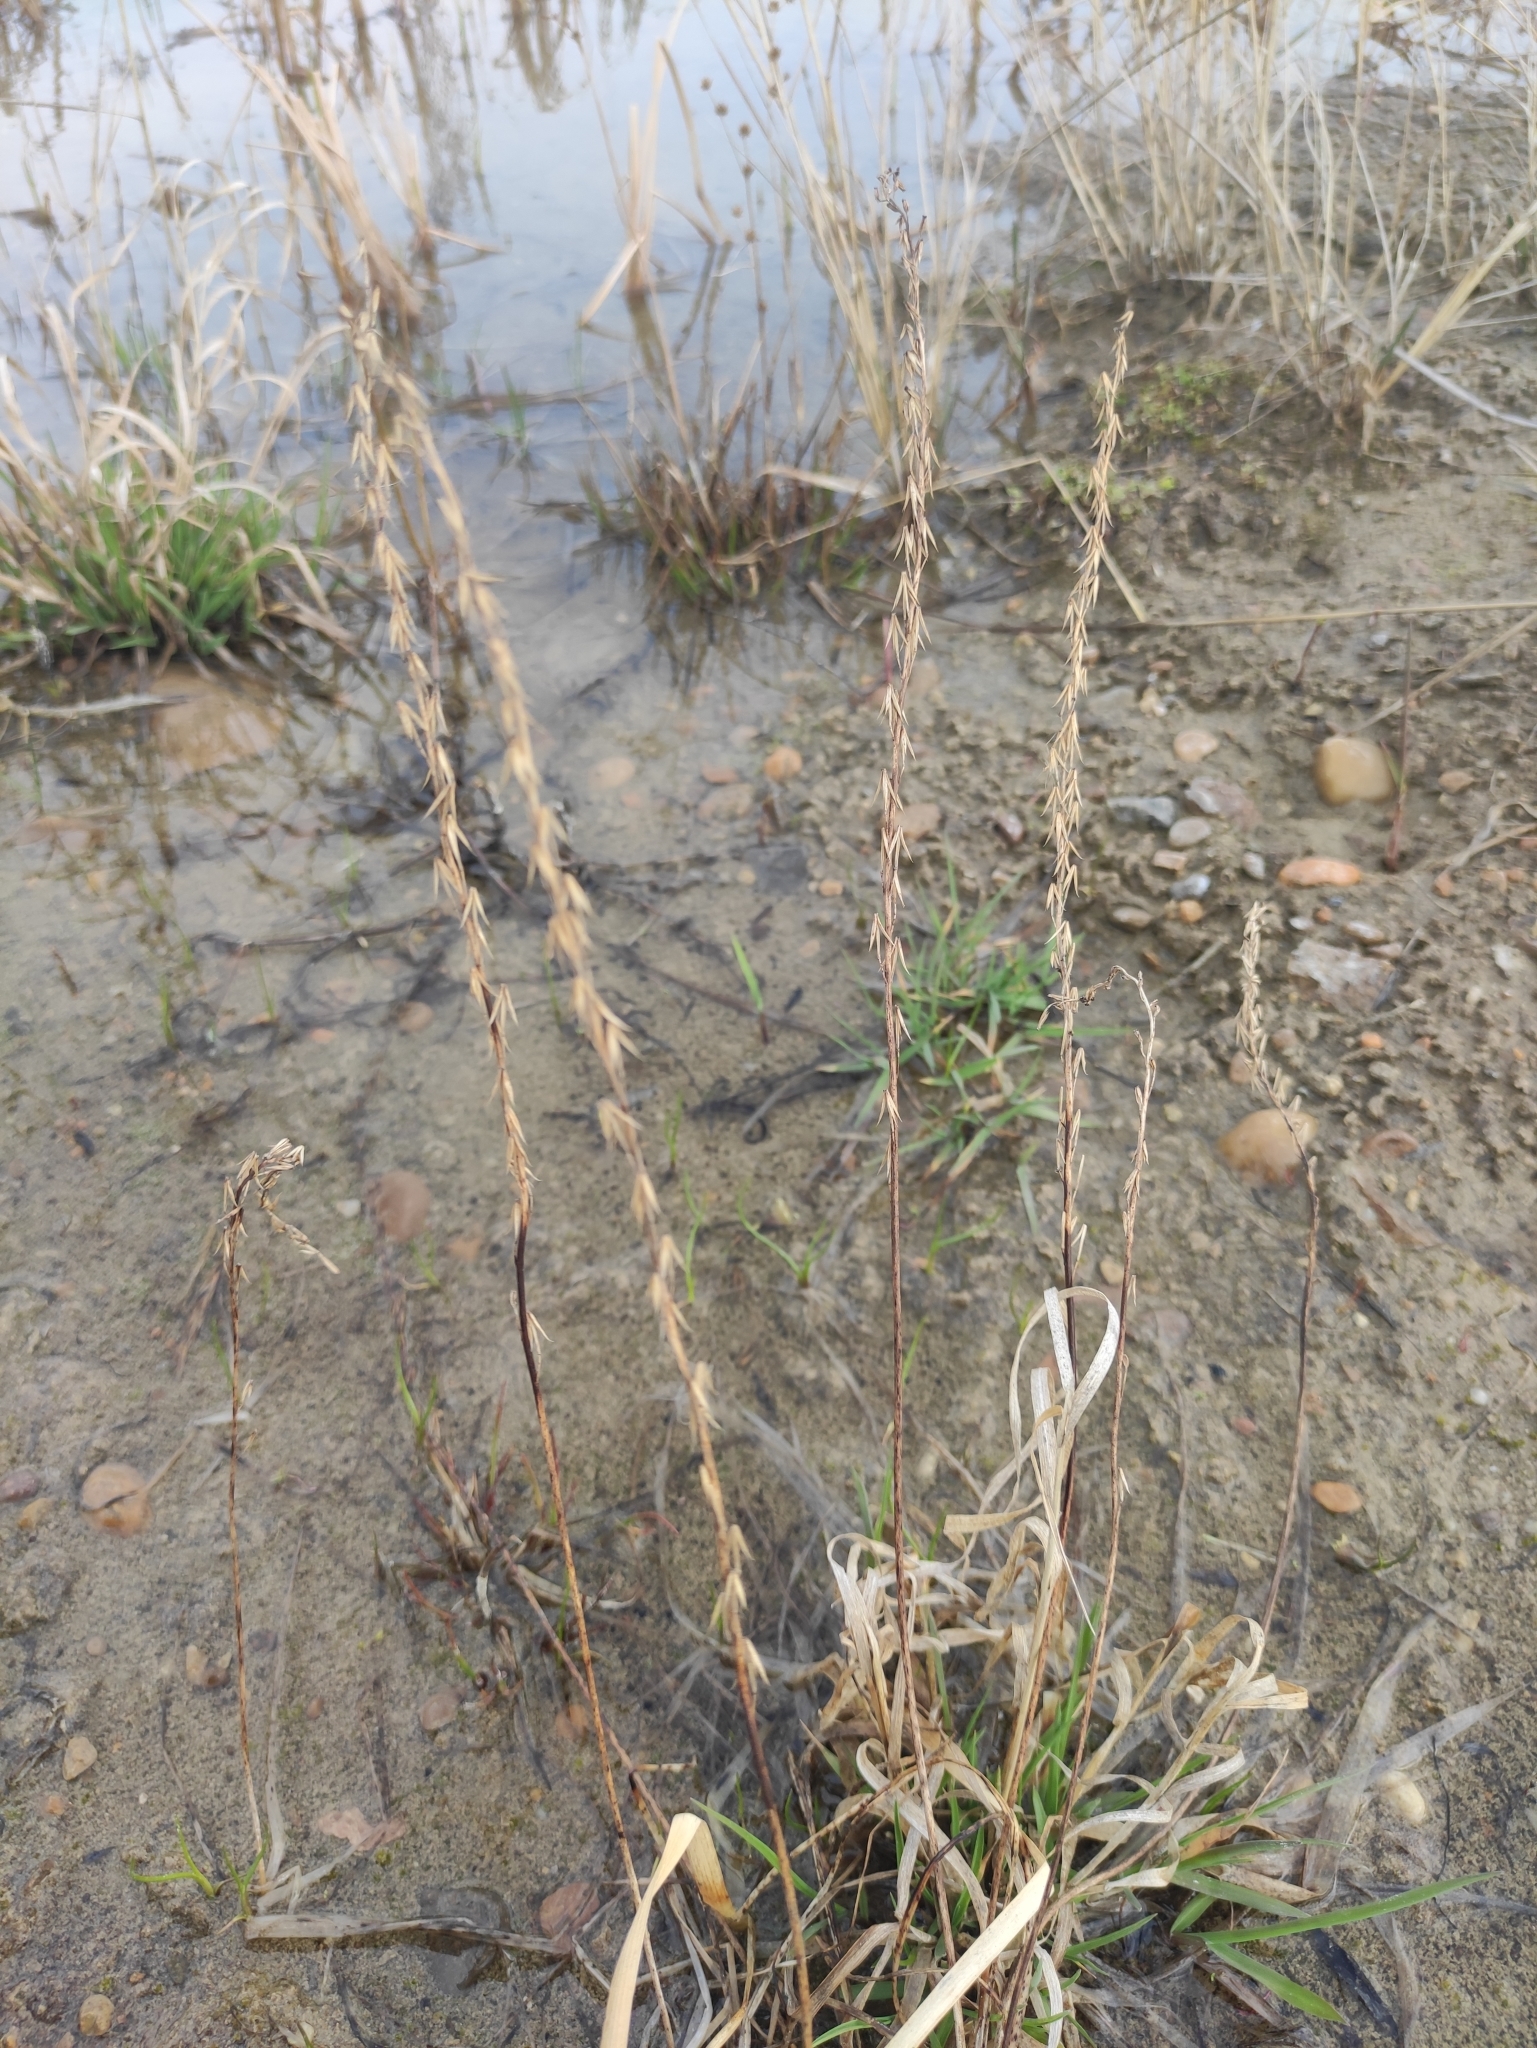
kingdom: Plantae
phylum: Tracheophyta
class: Liliopsida
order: Alismatales
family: Juncaginaceae
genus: Triglochin
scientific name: Triglochin palustris
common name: Marsh arrowgrass
